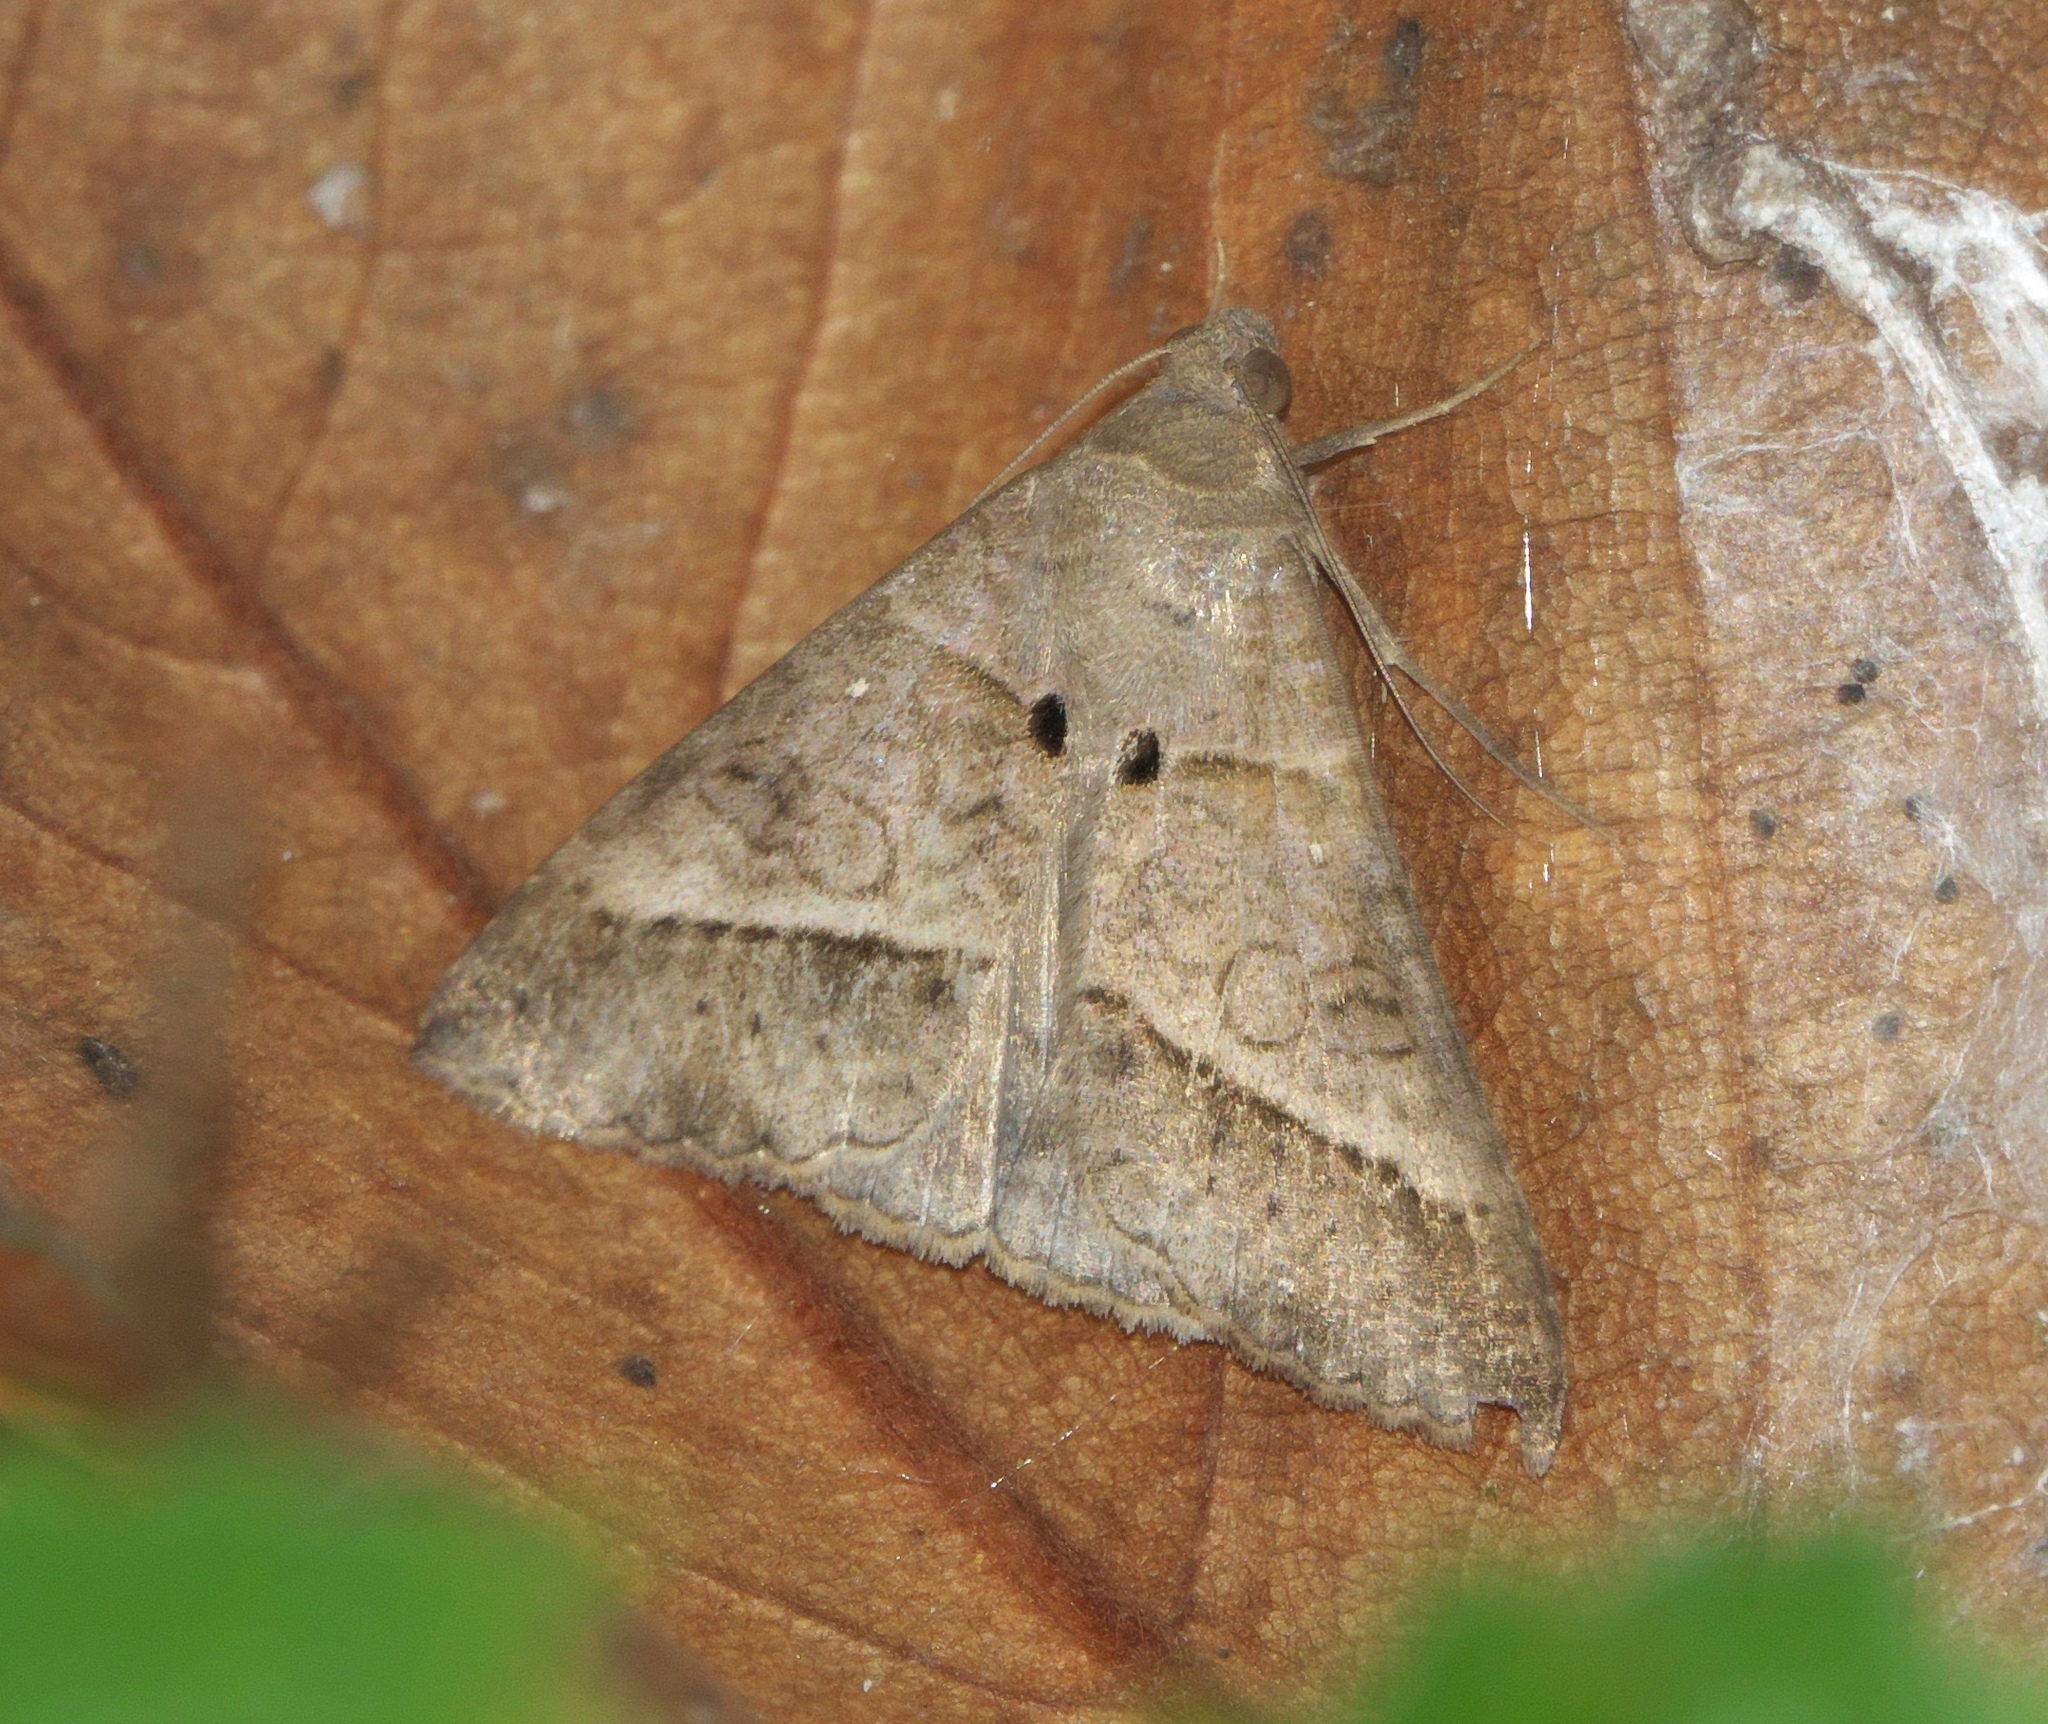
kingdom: Animalia
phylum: Arthropoda
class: Insecta
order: Lepidoptera
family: Erebidae
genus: Mocis
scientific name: Mocis latipes
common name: Striped grass looper
